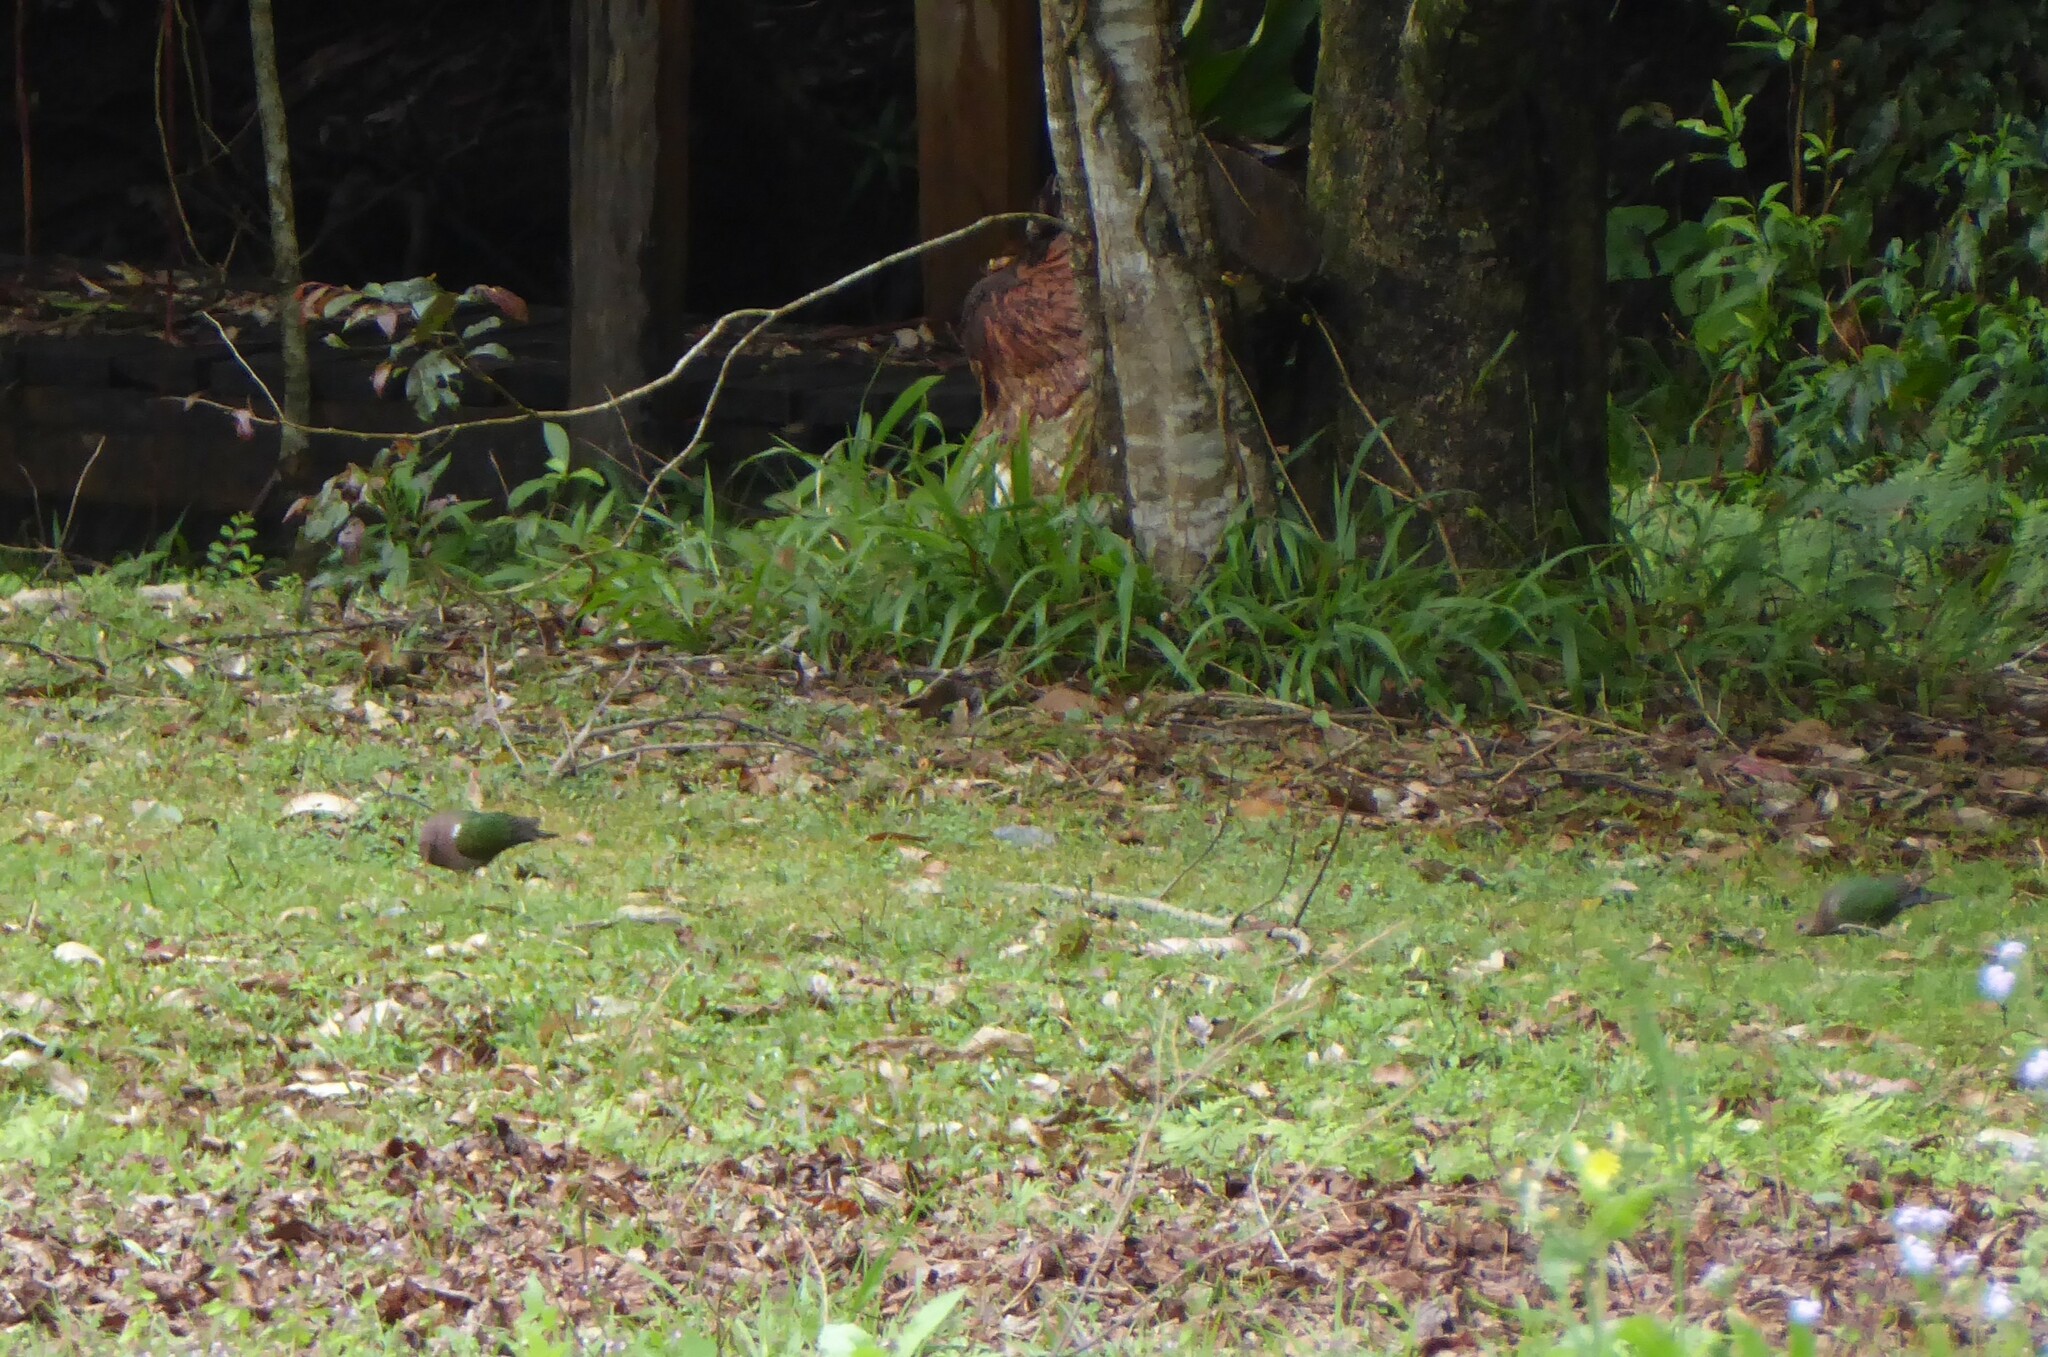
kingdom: Animalia
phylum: Chordata
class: Aves
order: Columbiformes
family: Columbidae
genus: Chalcophaps
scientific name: Chalcophaps longirostris
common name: Pacific emerald dove
